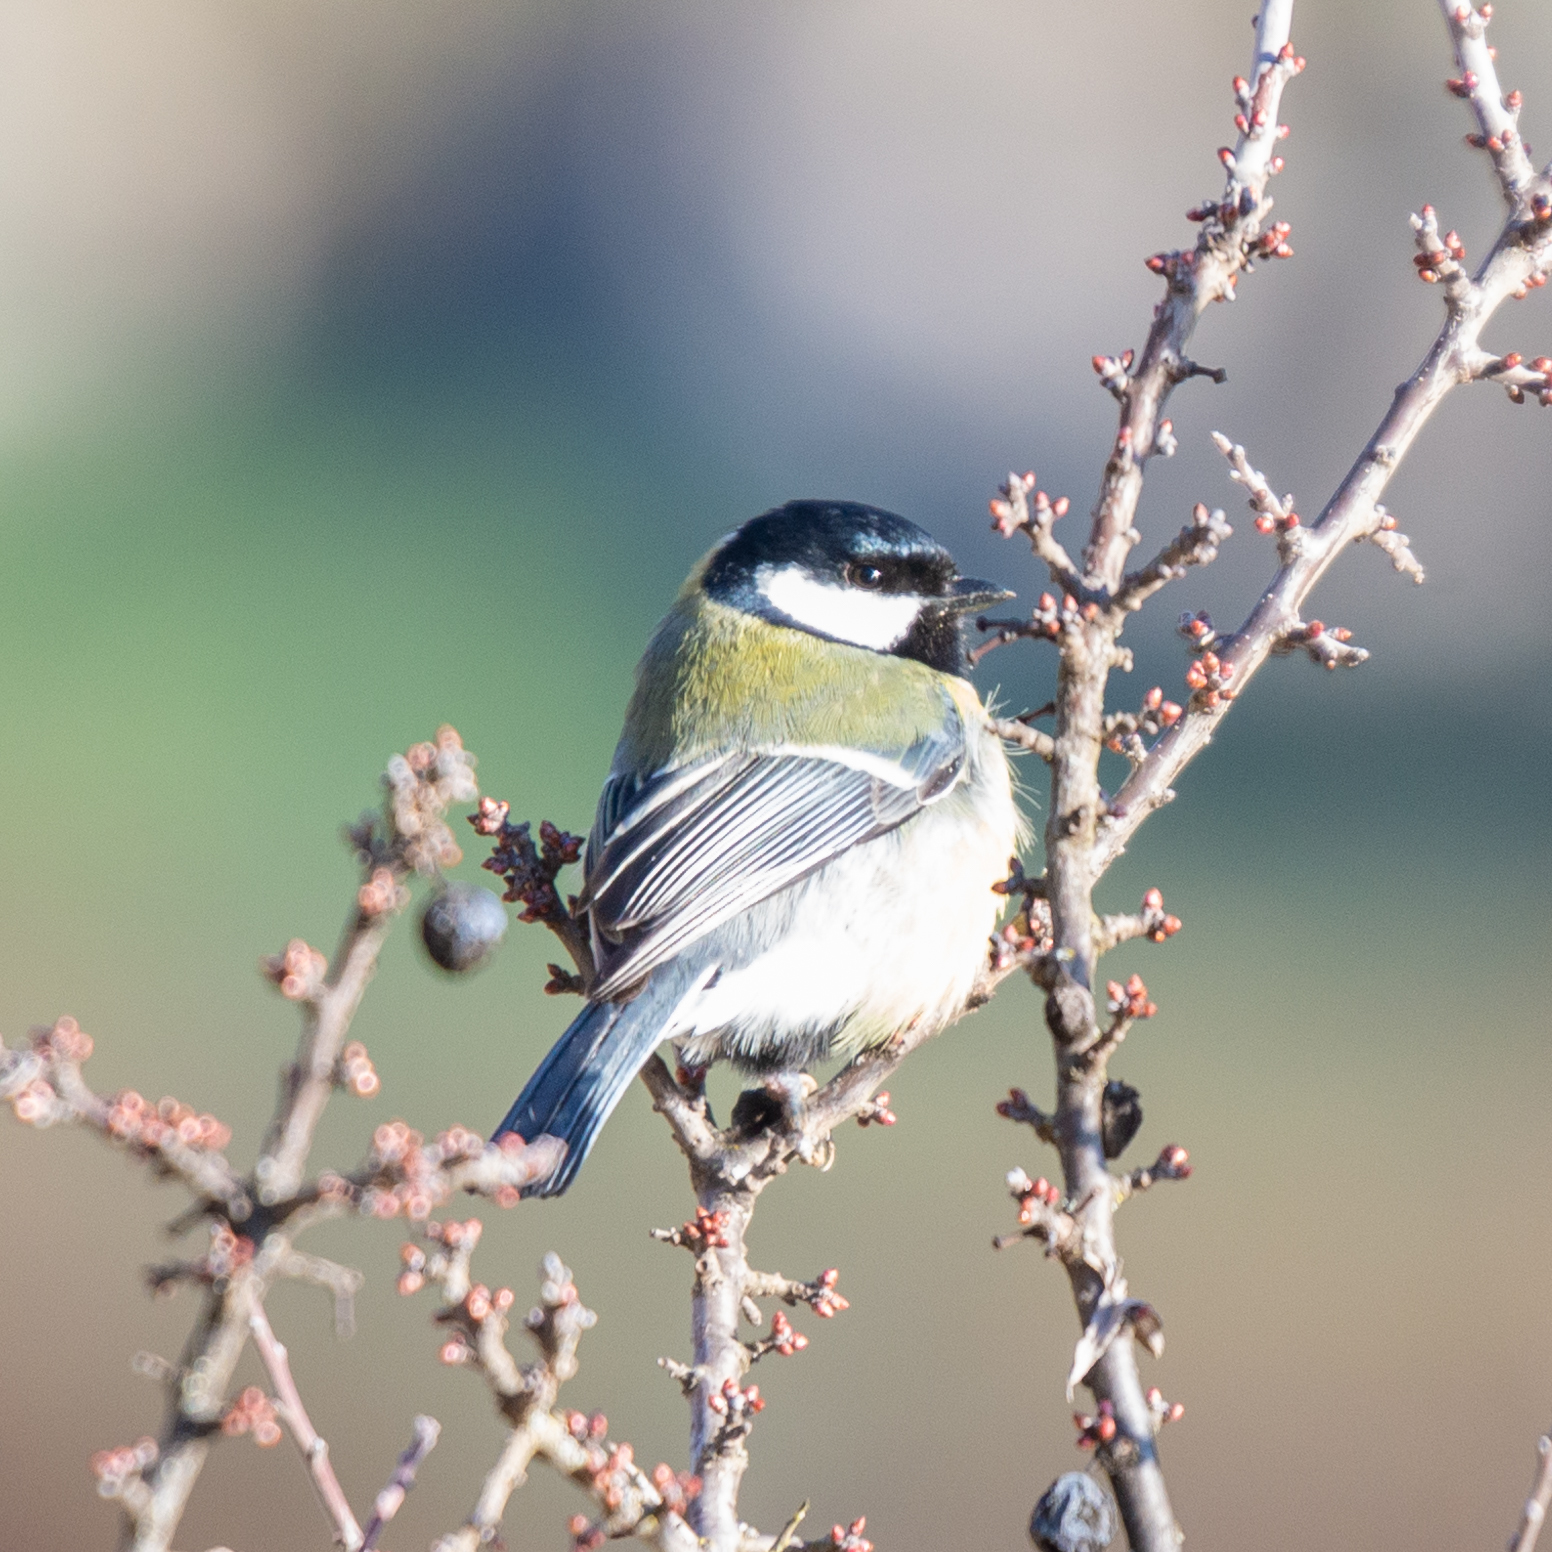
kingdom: Animalia
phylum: Chordata
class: Aves
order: Passeriformes
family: Paridae
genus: Parus
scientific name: Parus major
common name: Great tit
